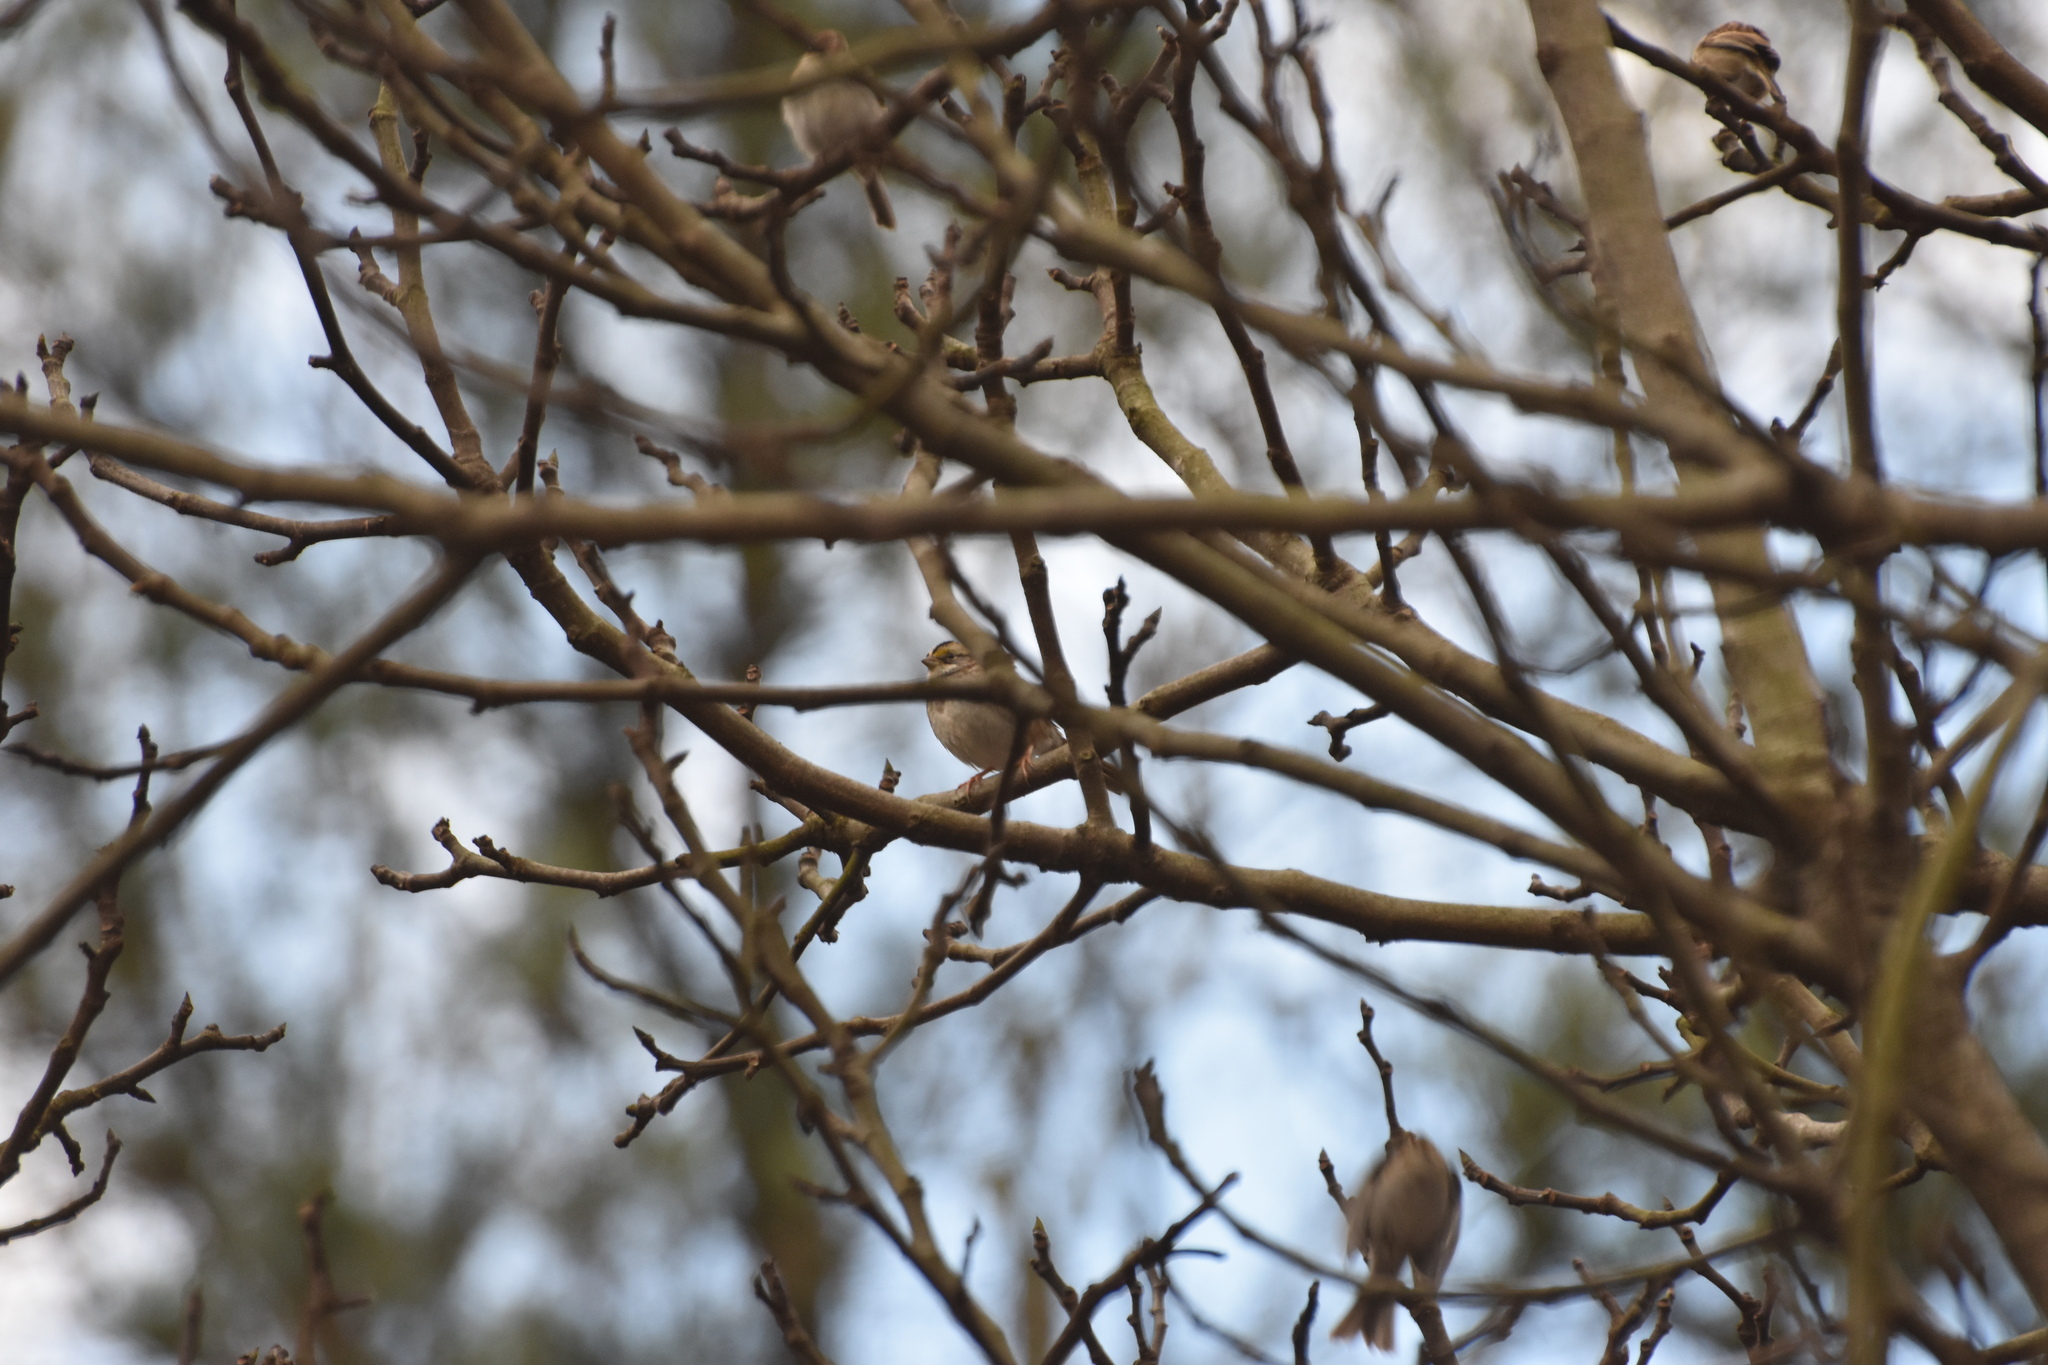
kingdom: Animalia
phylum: Chordata
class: Aves
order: Passeriformes
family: Passerellidae
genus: Zonotrichia
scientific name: Zonotrichia albicollis
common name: White-throated sparrow
